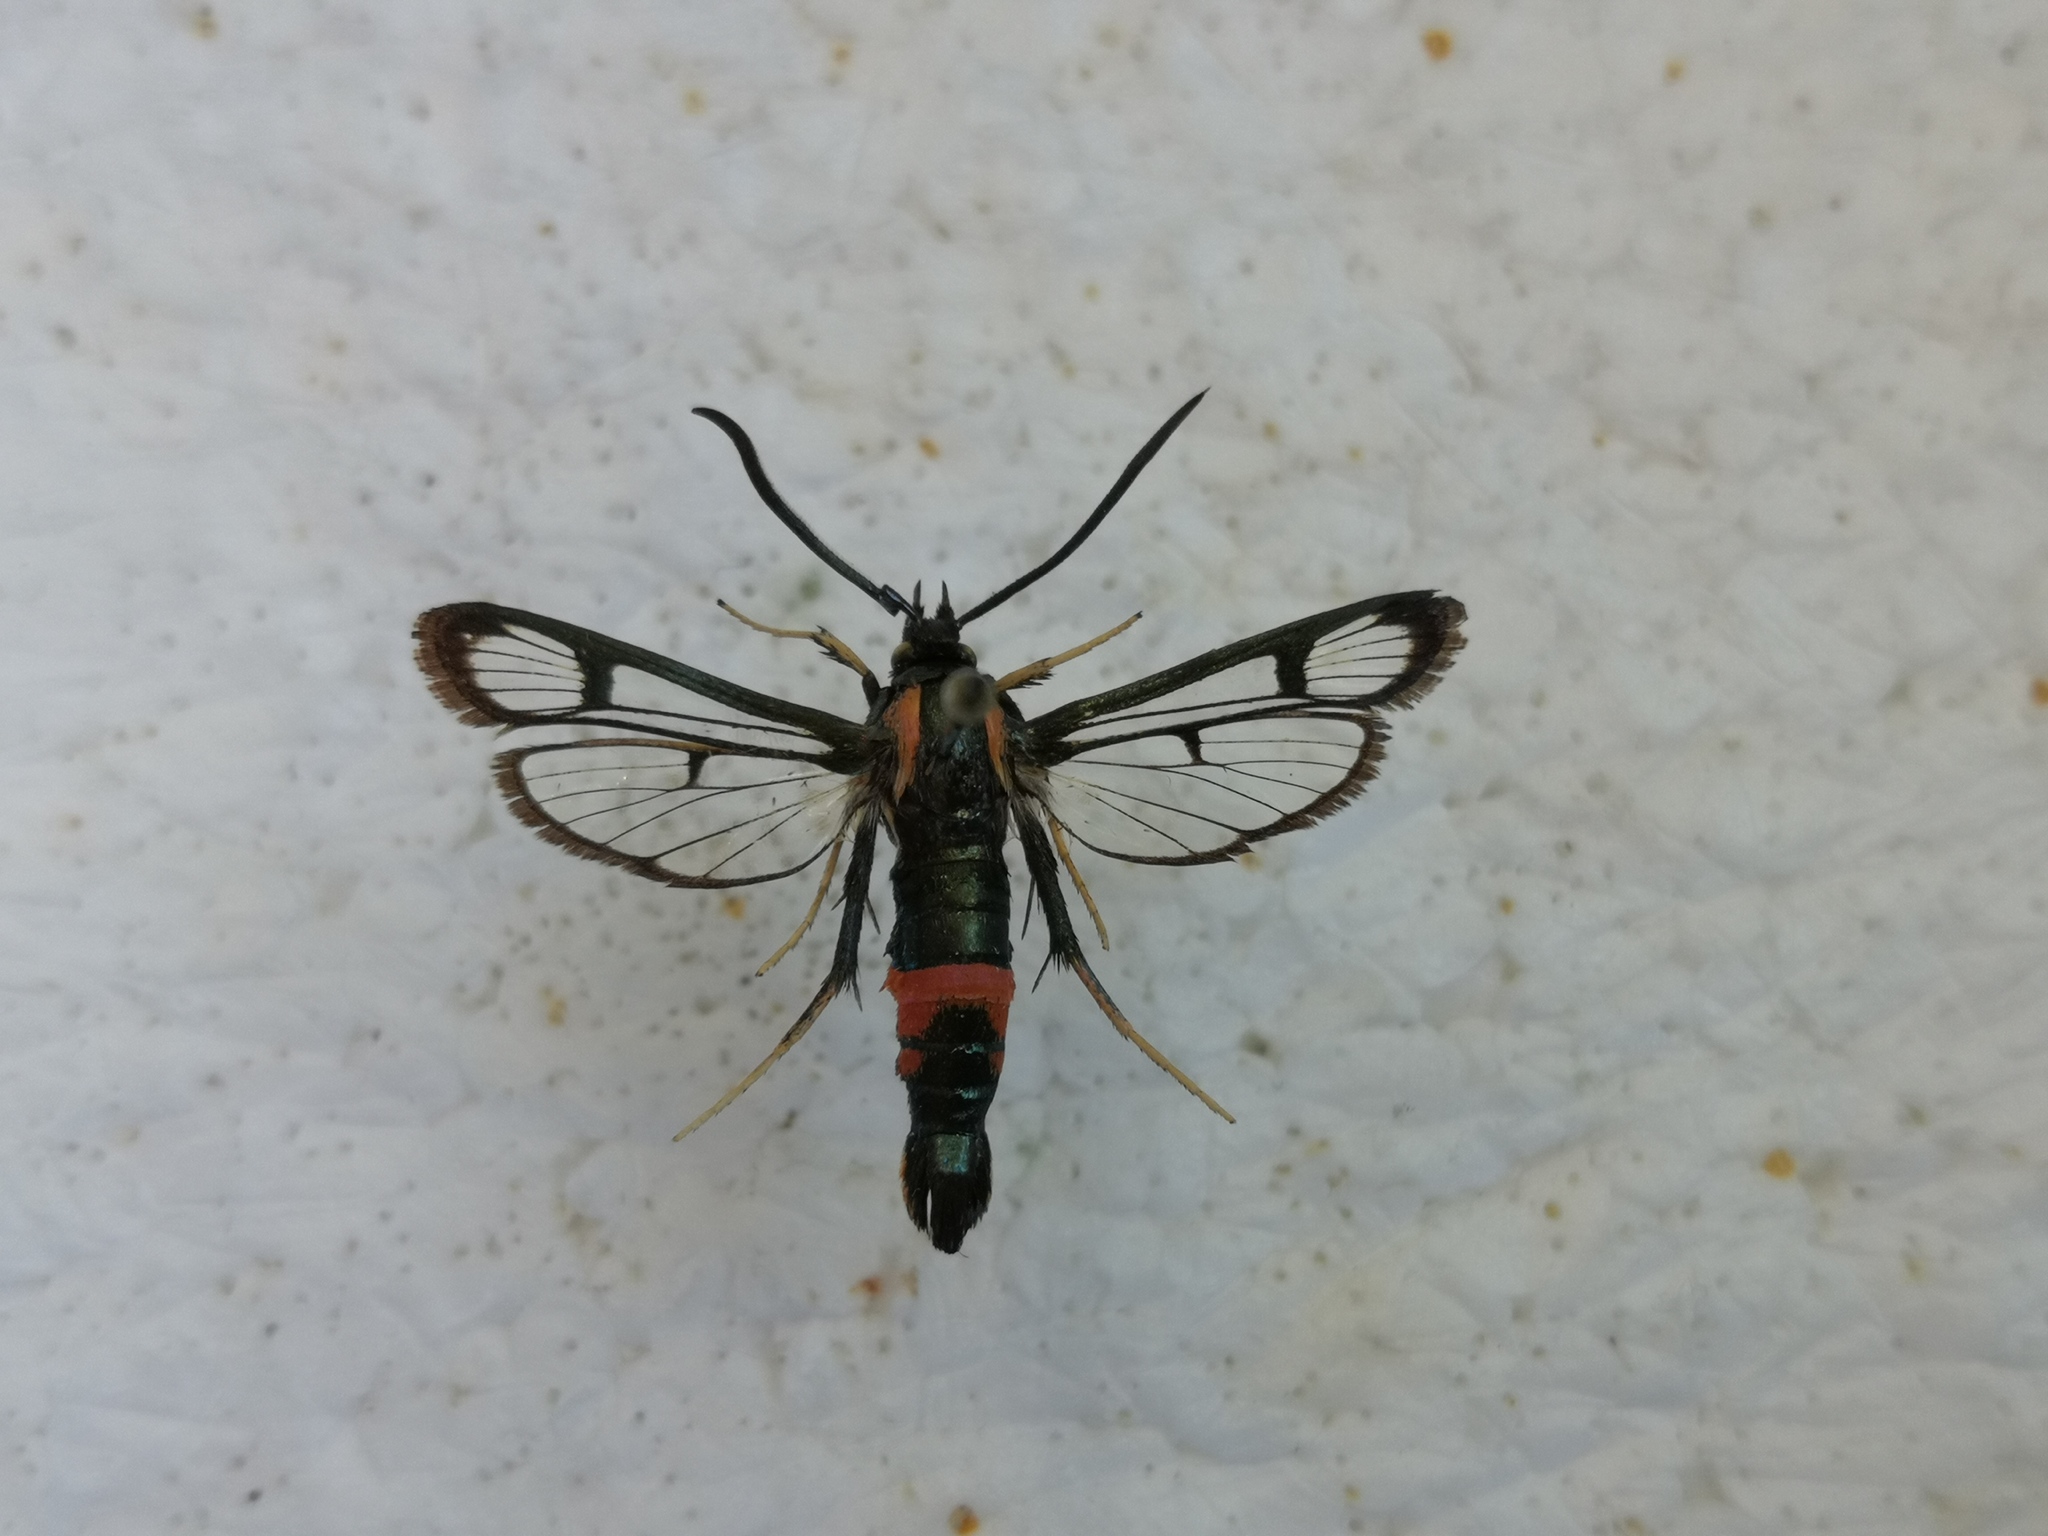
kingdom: Animalia
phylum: Arthropoda
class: Insecta
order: Lepidoptera
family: Sesiidae
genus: Synanthedon
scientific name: Synanthedon stomoxiformis
